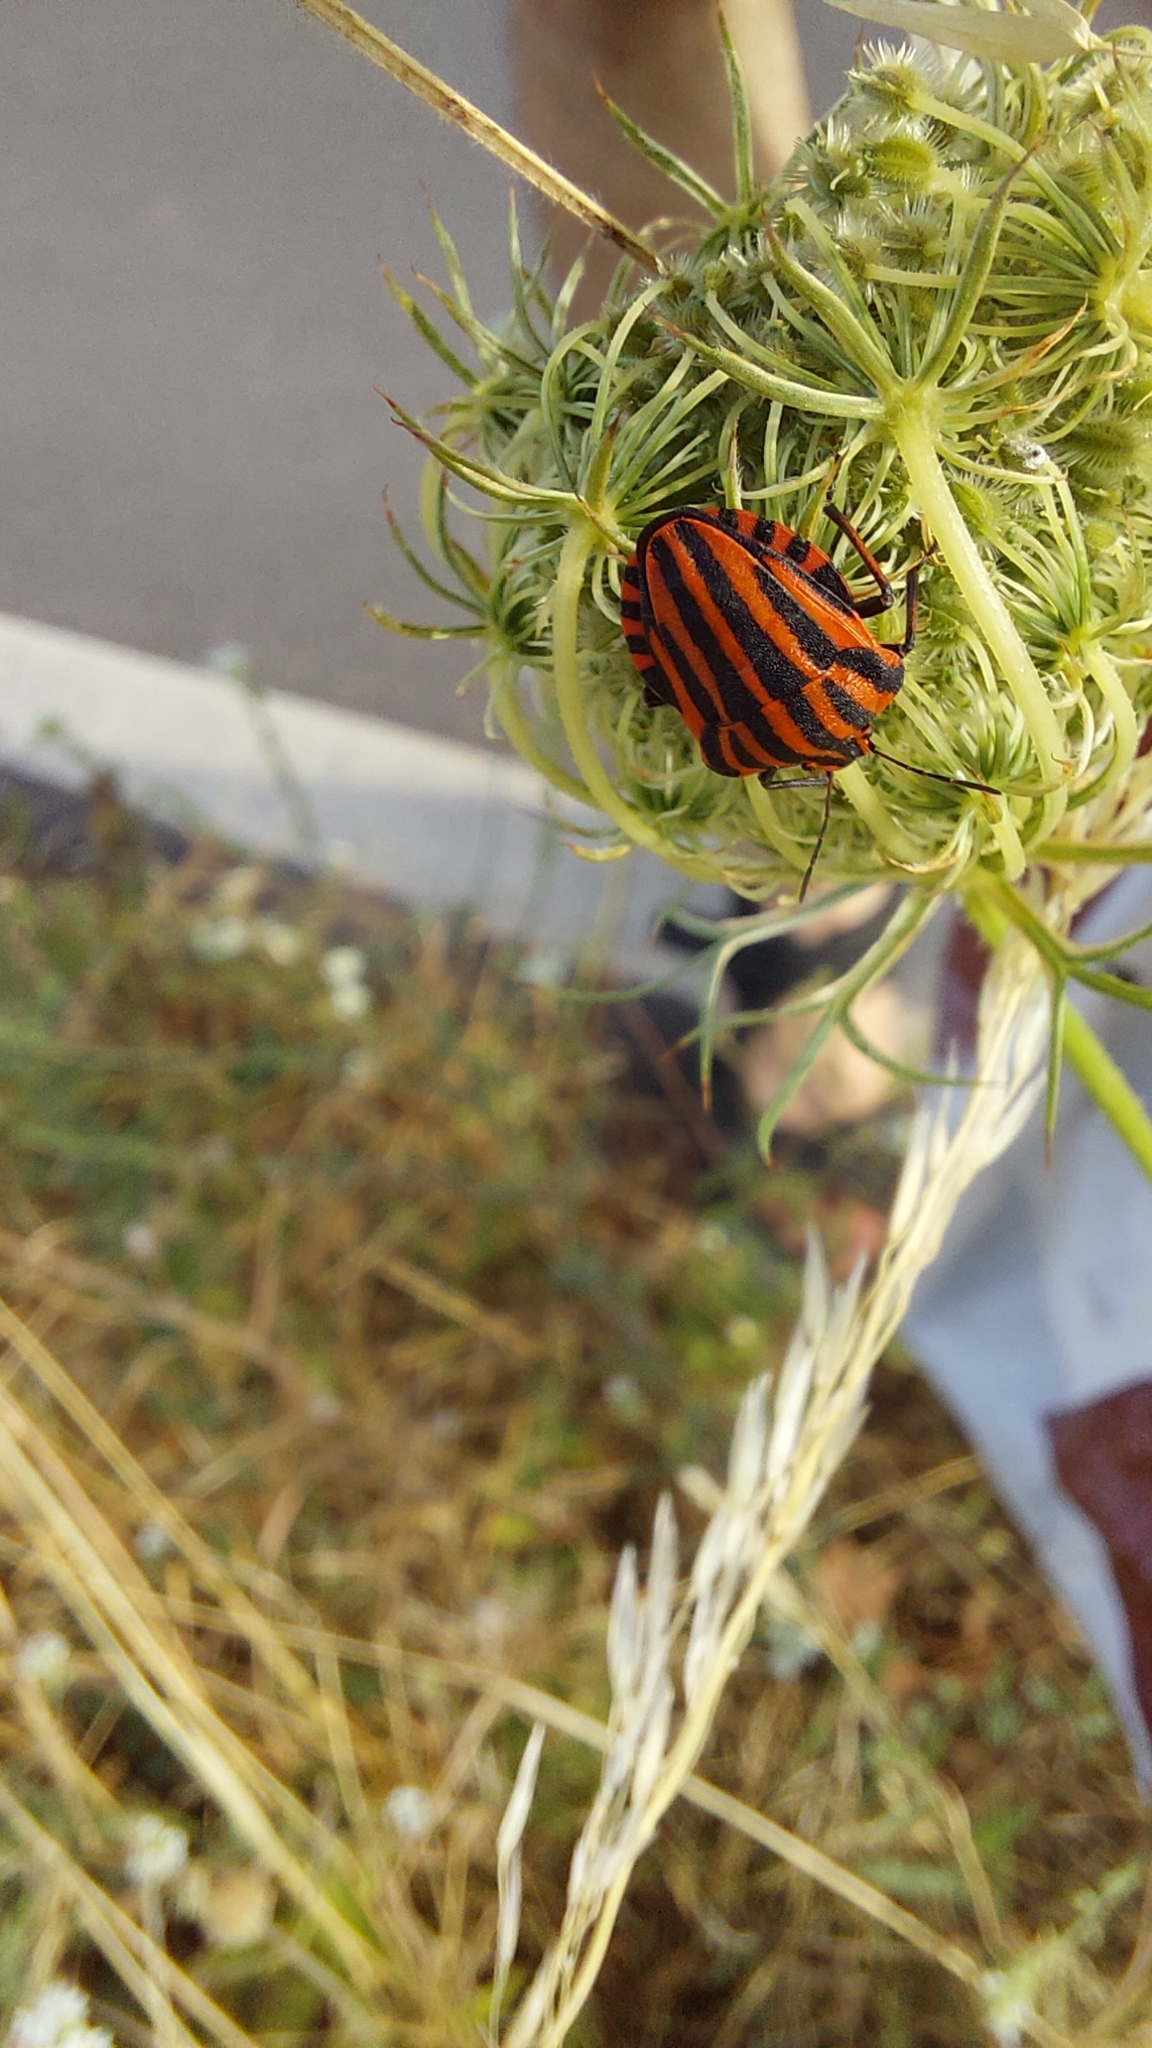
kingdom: Animalia
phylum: Arthropoda
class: Insecta
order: Hemiptera
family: Pentatomidae
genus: Graphosoma
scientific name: Graphosoma italicum
